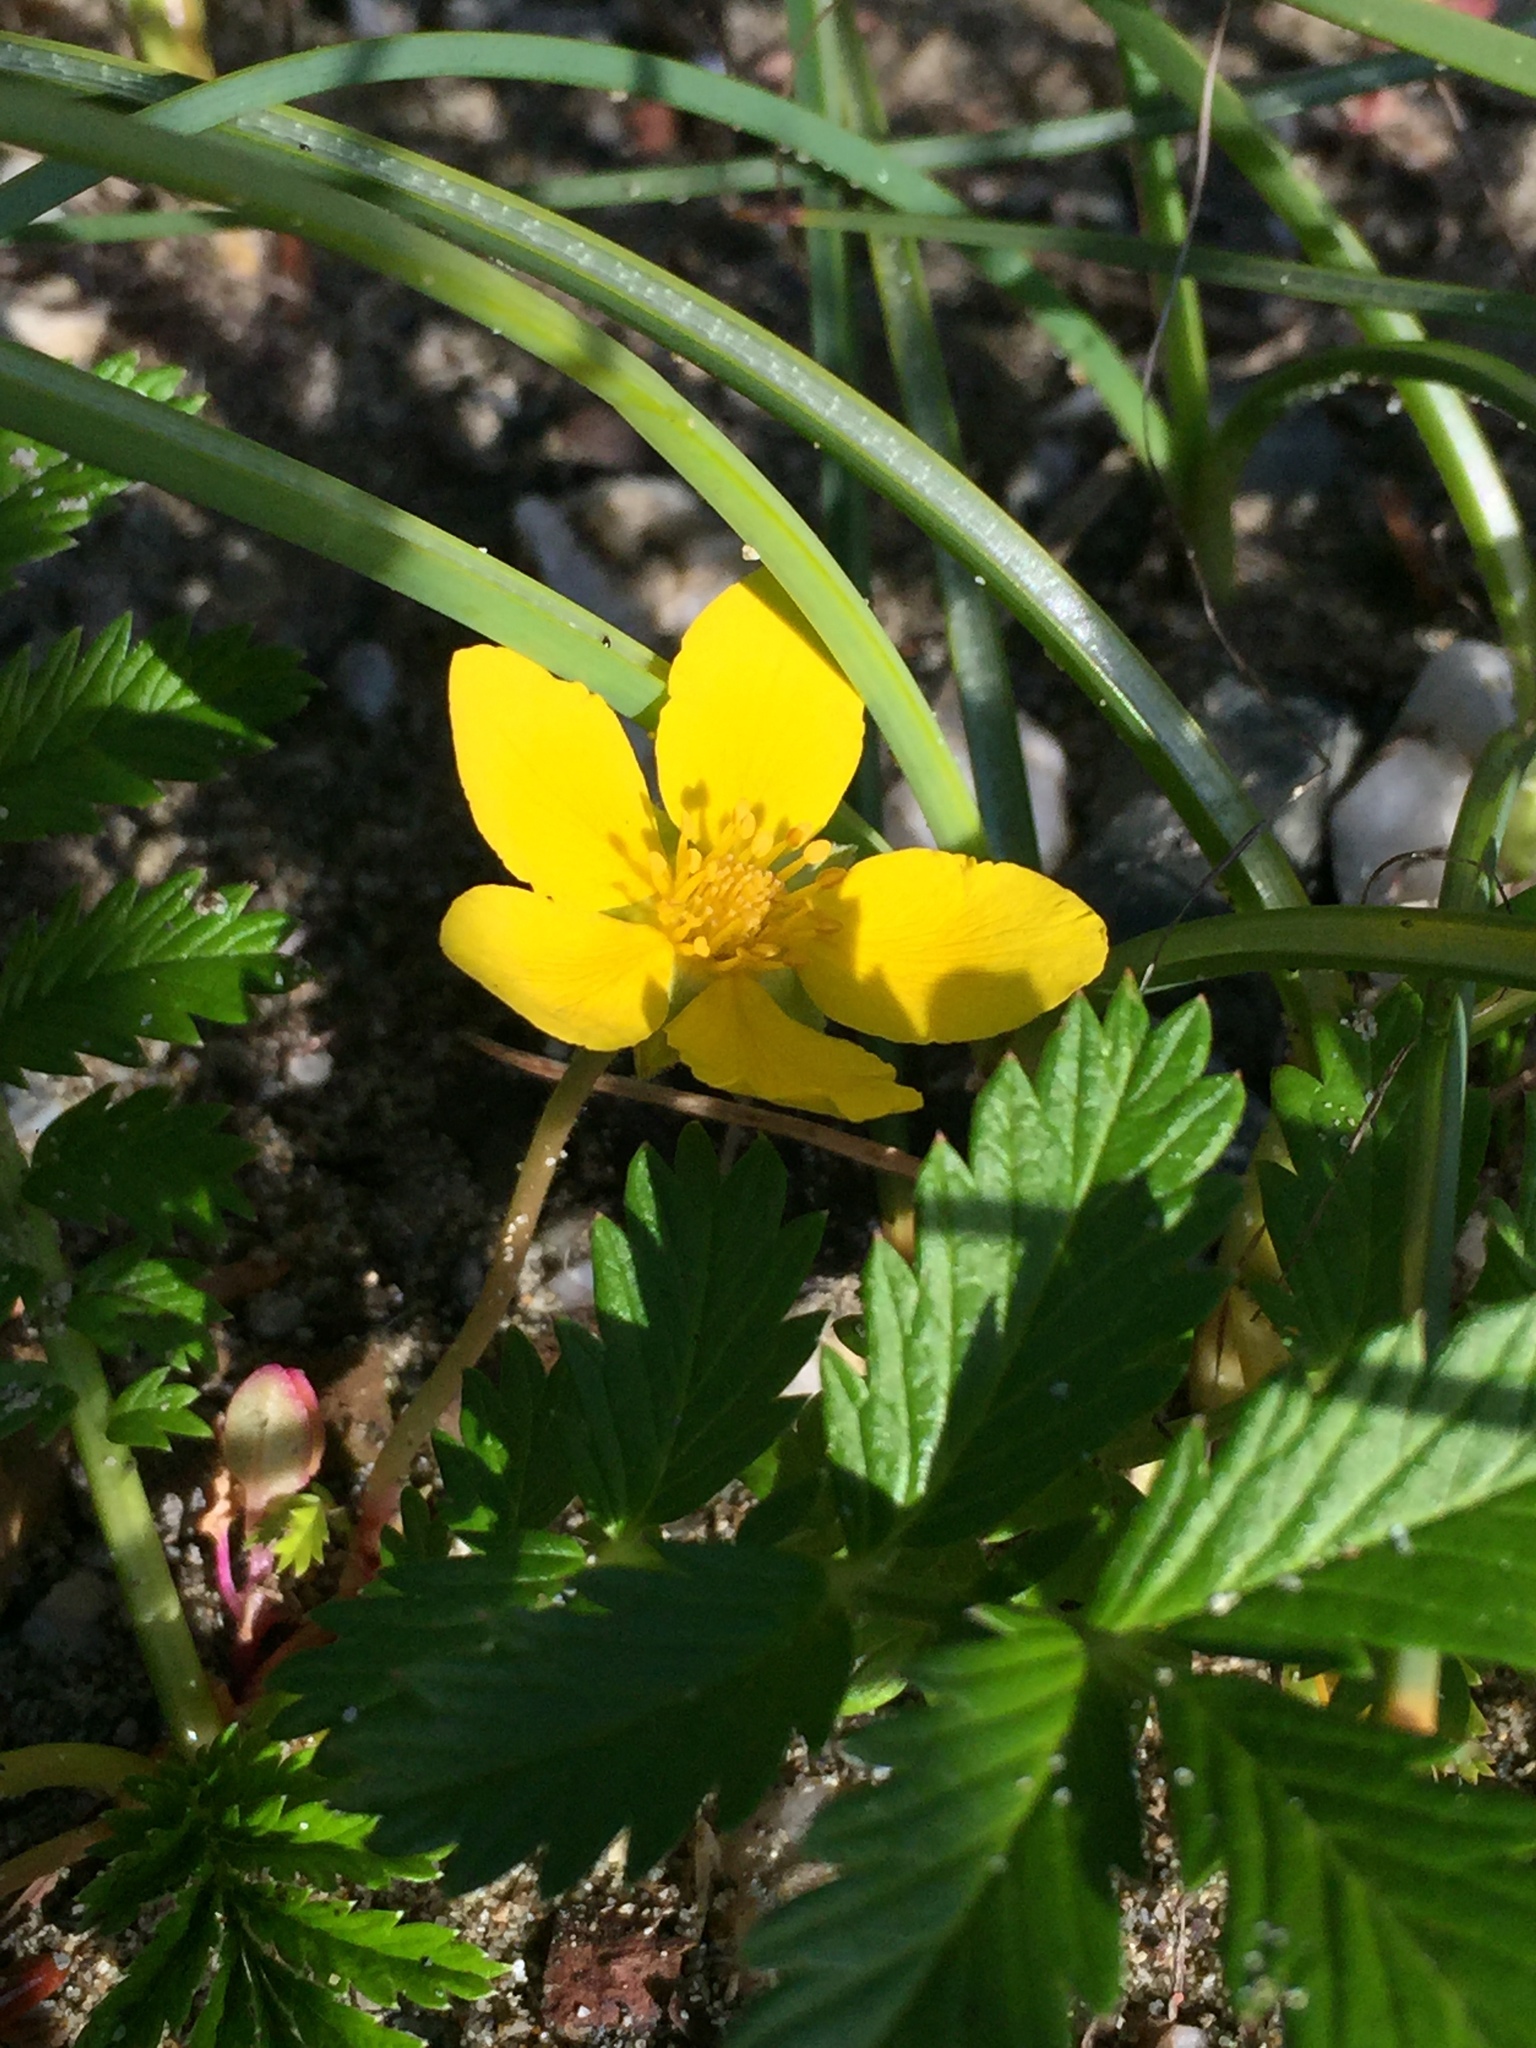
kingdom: Plantae
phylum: Tracheophyta
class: Magnoliopsida
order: Rosales
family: Rosaceae
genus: Argentina
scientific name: Argentina anserina
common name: Common silverweed
